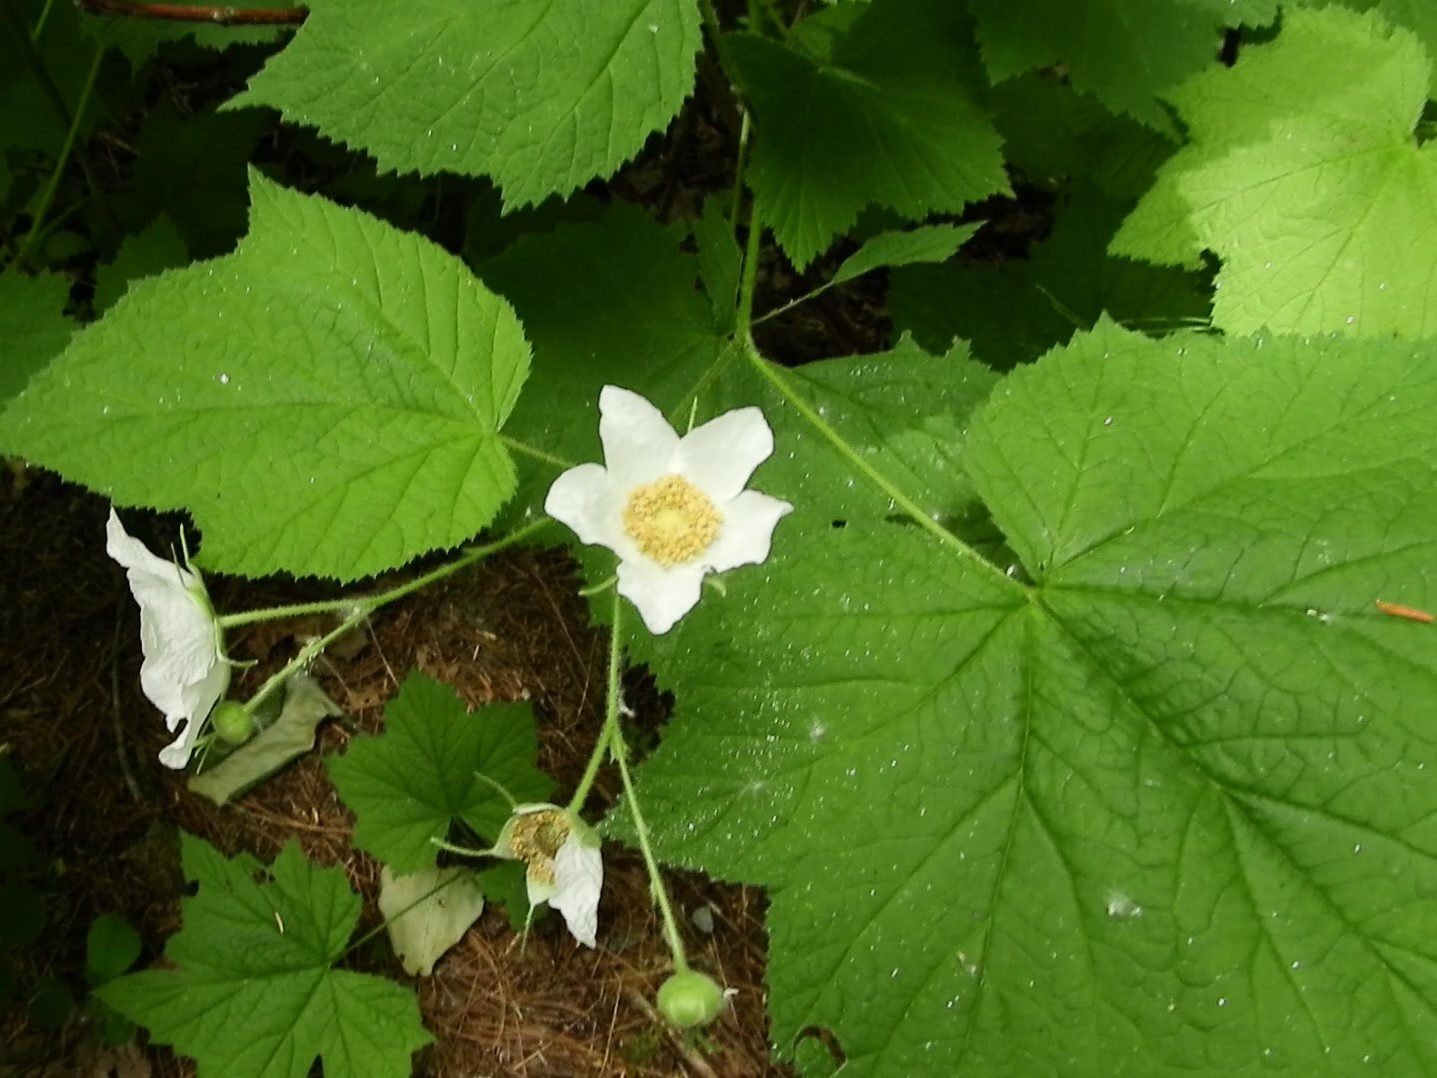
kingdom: Plantae
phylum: Tracheophyta
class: Magnoliopsida
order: Rosales
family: Rosaceae
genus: Rubus
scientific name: Rubus parviflorus
